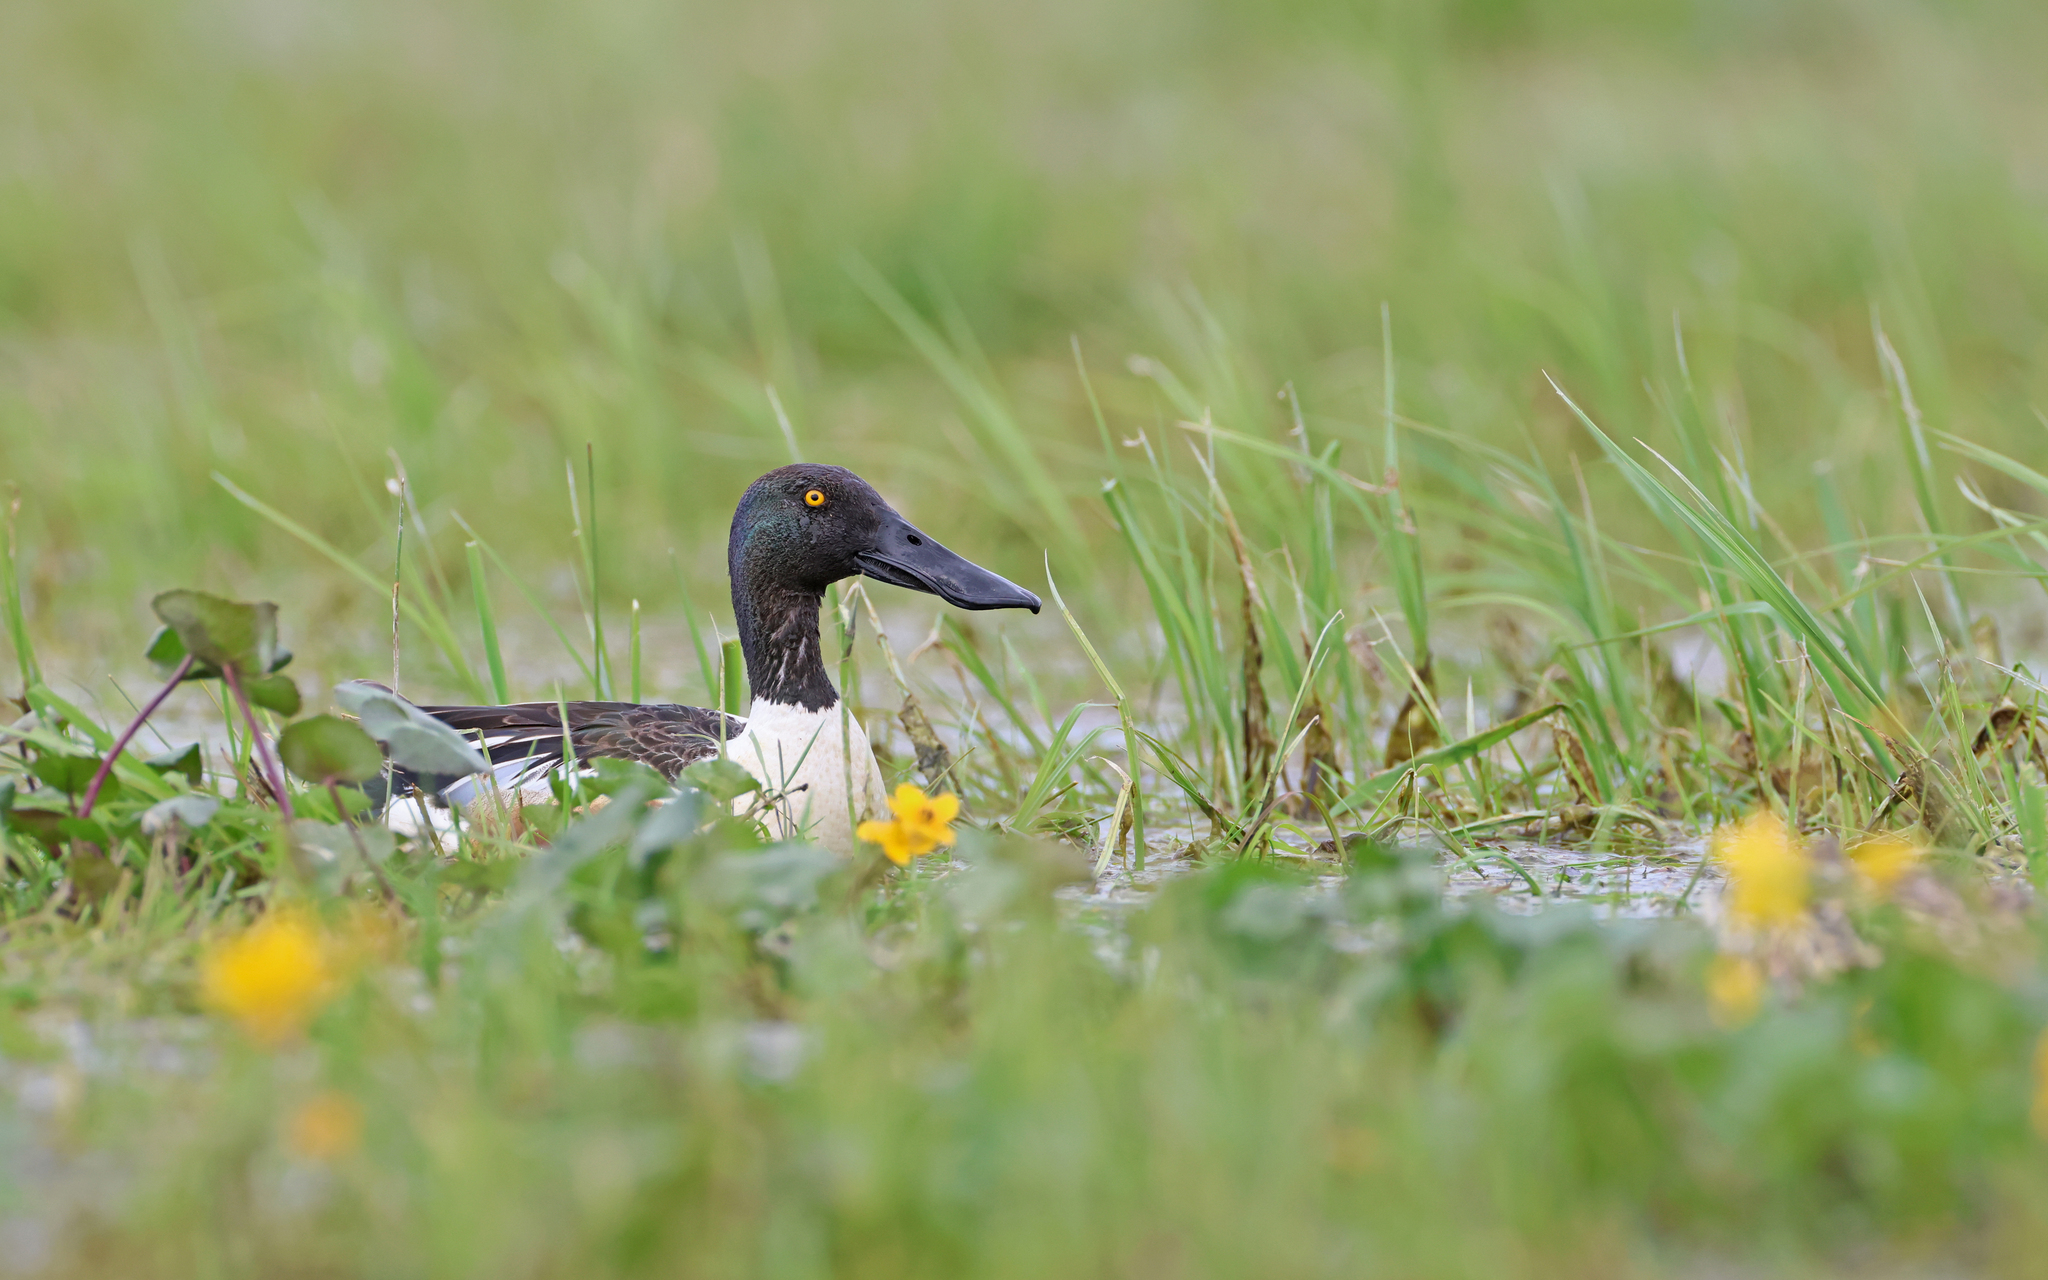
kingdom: Animalia
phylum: Chordata
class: Aves
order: Anseriformes
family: Anatidae
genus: Spatula
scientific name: Spatula clypeata
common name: Northern shoveler
